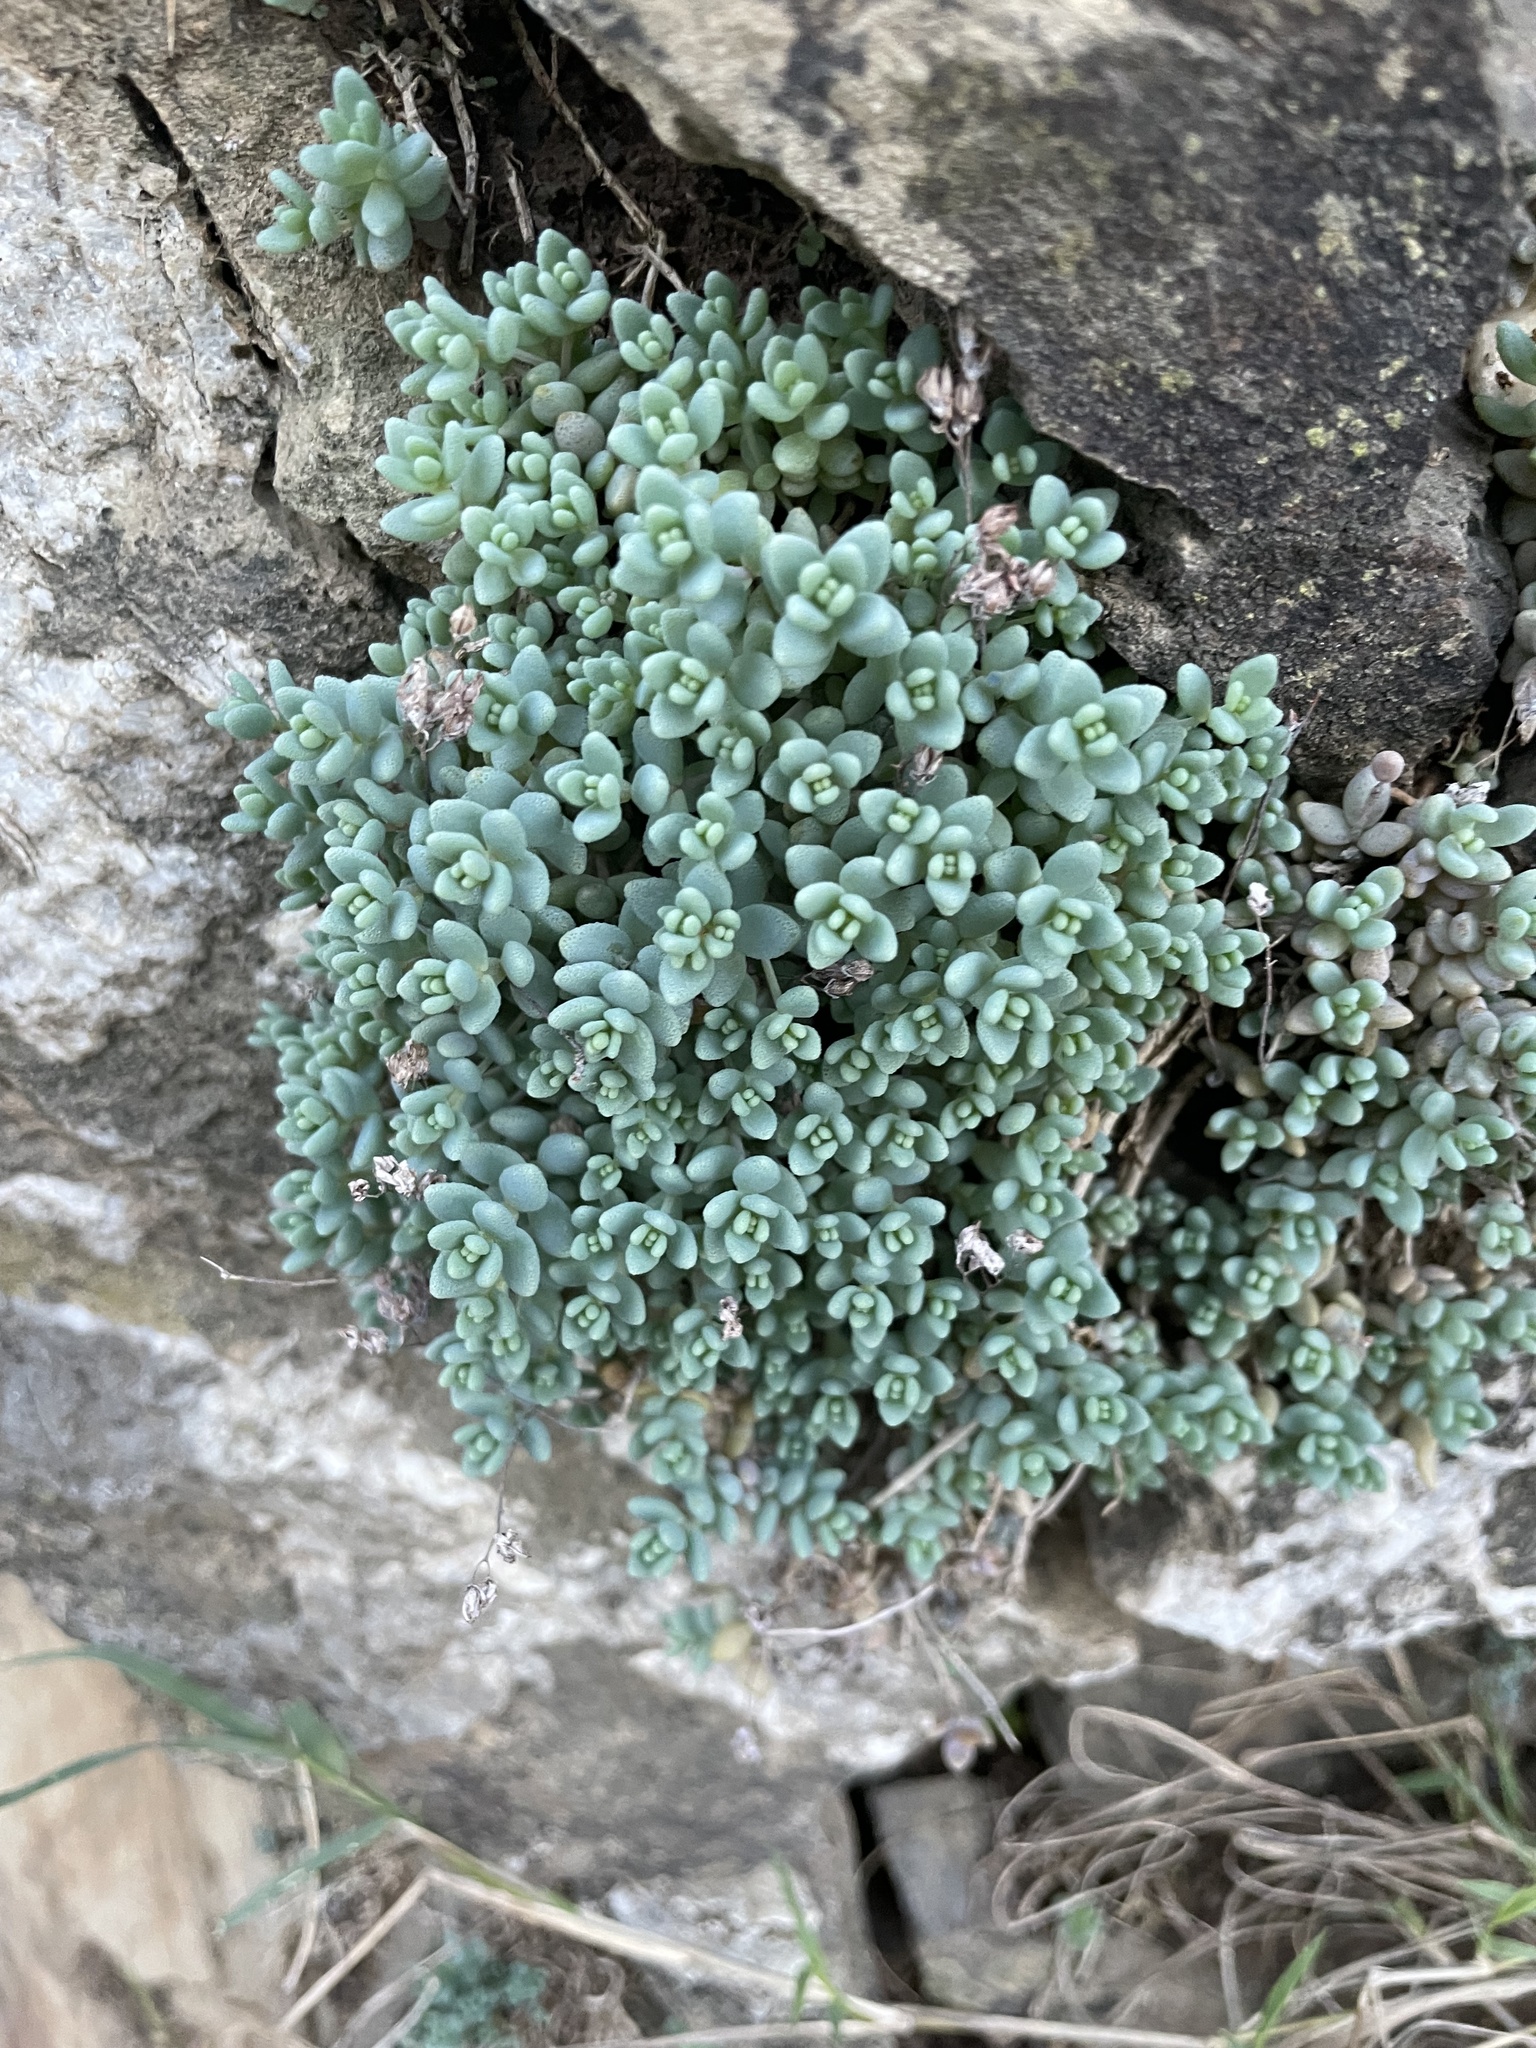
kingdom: Plantae
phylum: Tracheophyta
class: Magnoliopsida
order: Saxifragales
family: Crassulaceae
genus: Sedum
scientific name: Sedum dasyphyllum
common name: Thick-leaf stonecrop
